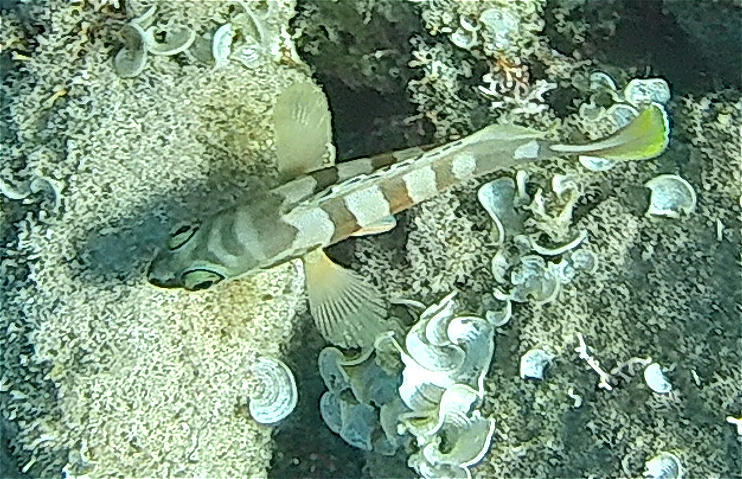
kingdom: Animalia
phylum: Chordata
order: Perciformes
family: Serranidae
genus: Epinephelus
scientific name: Epinephelus fasciatus
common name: Blacktip grouper
